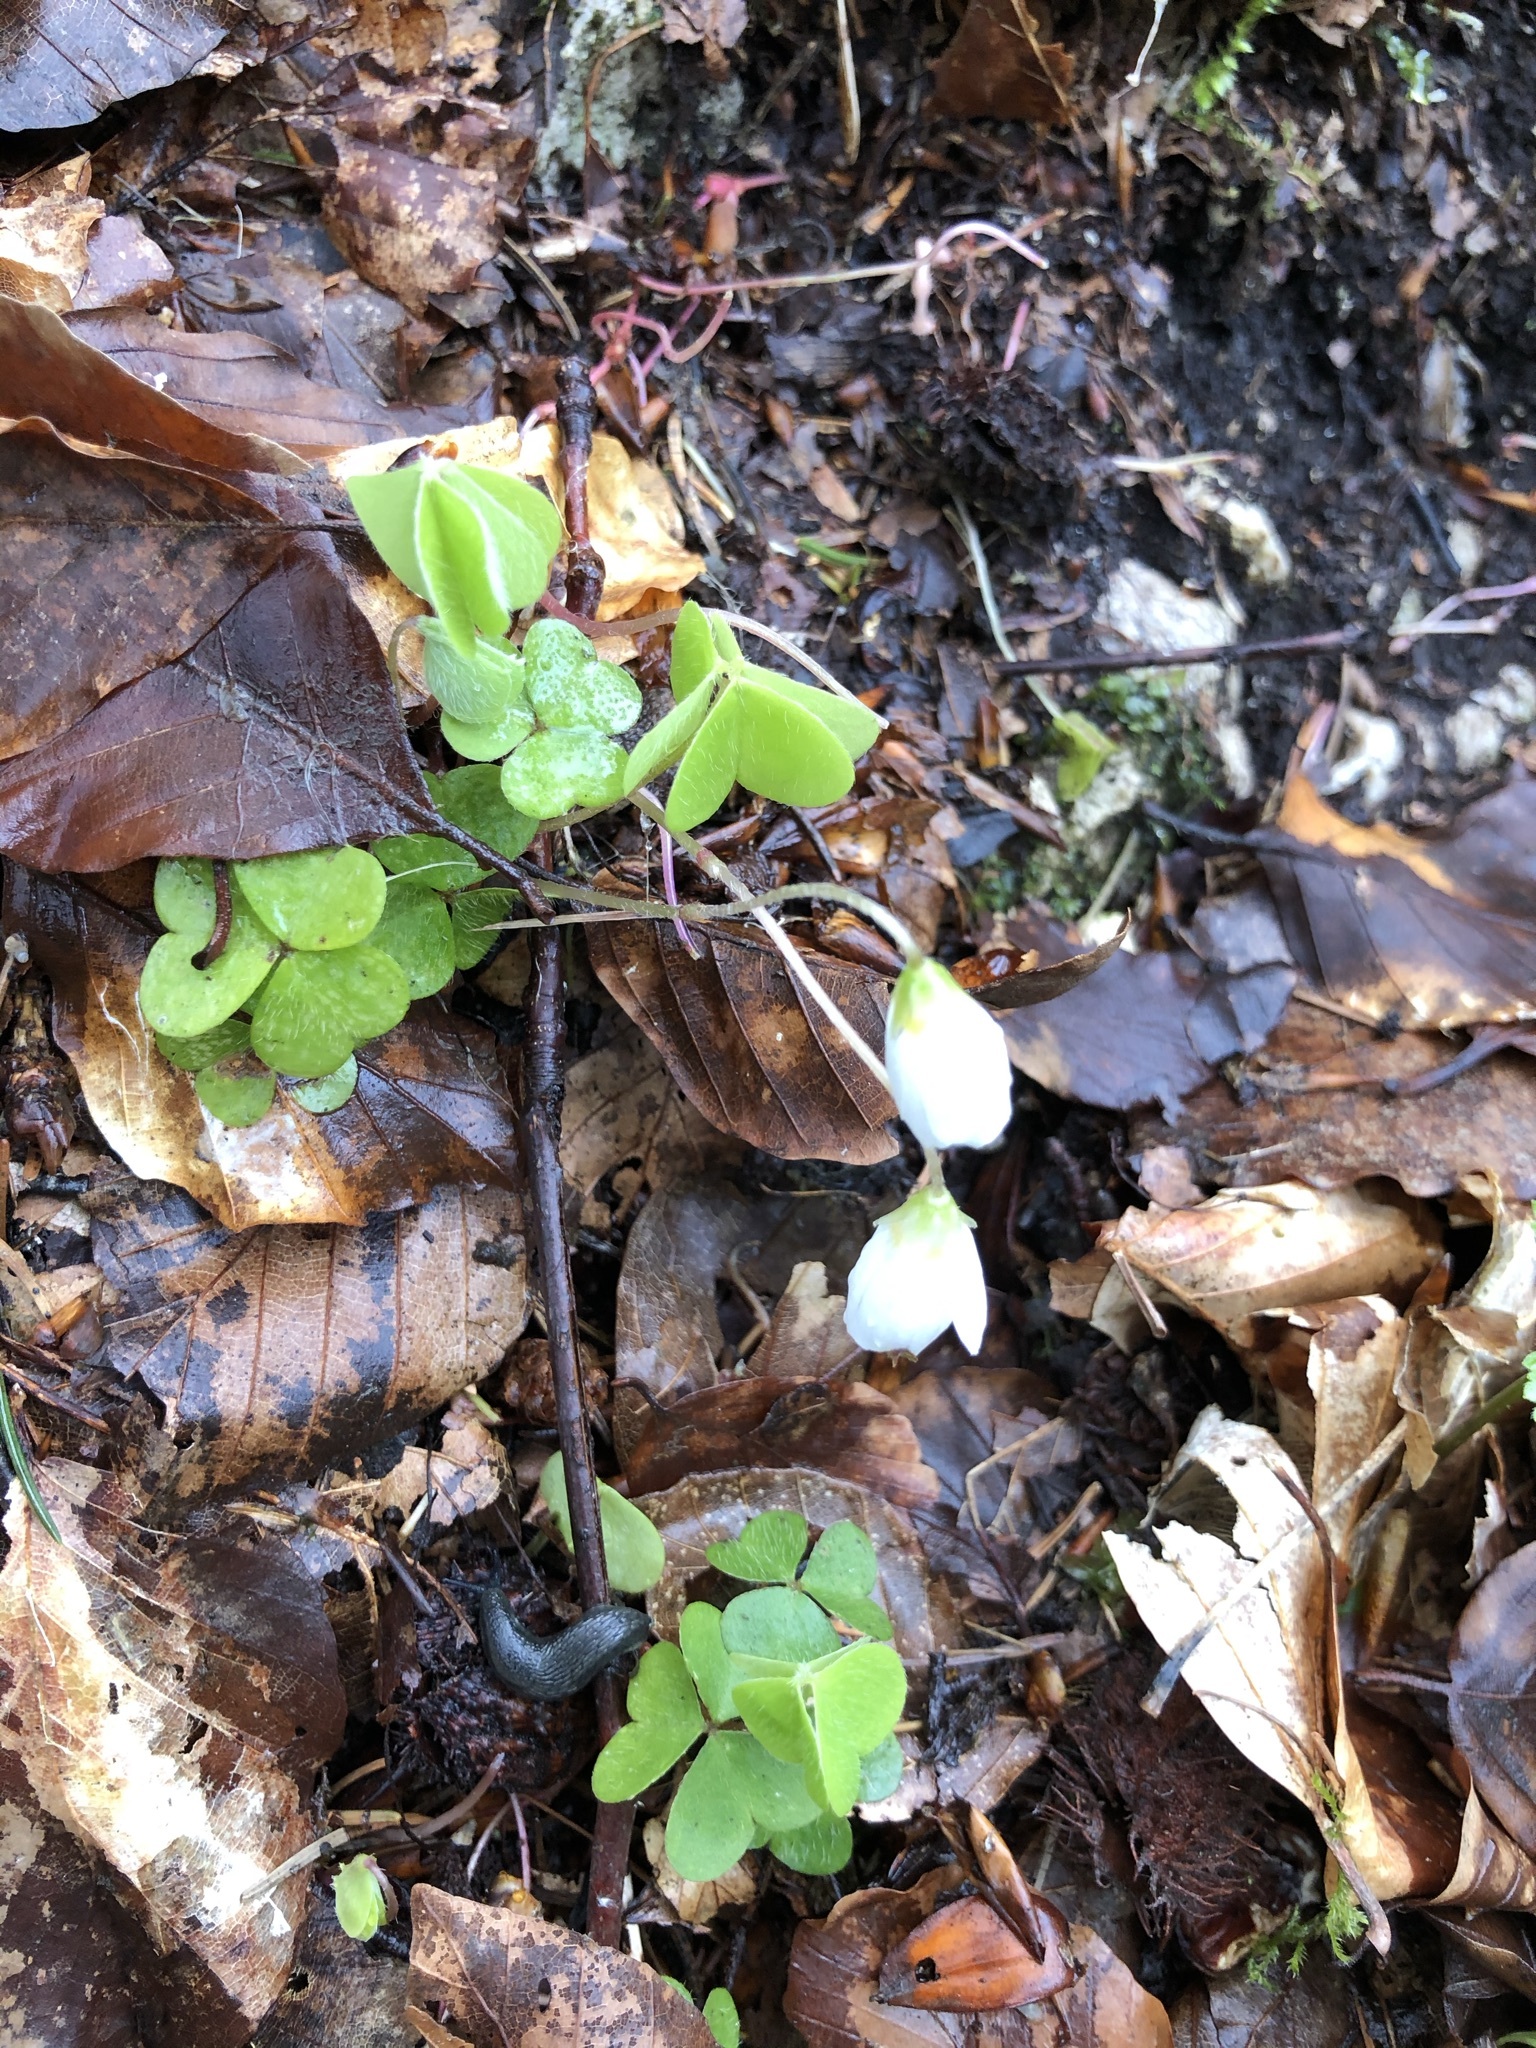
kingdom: Plantae
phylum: Tracheophyta
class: Magnoliopsida
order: Oxalidales
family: Oxalidaceae
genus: Oxalis
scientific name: Oxalis acetosella
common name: Wood-sorrel
